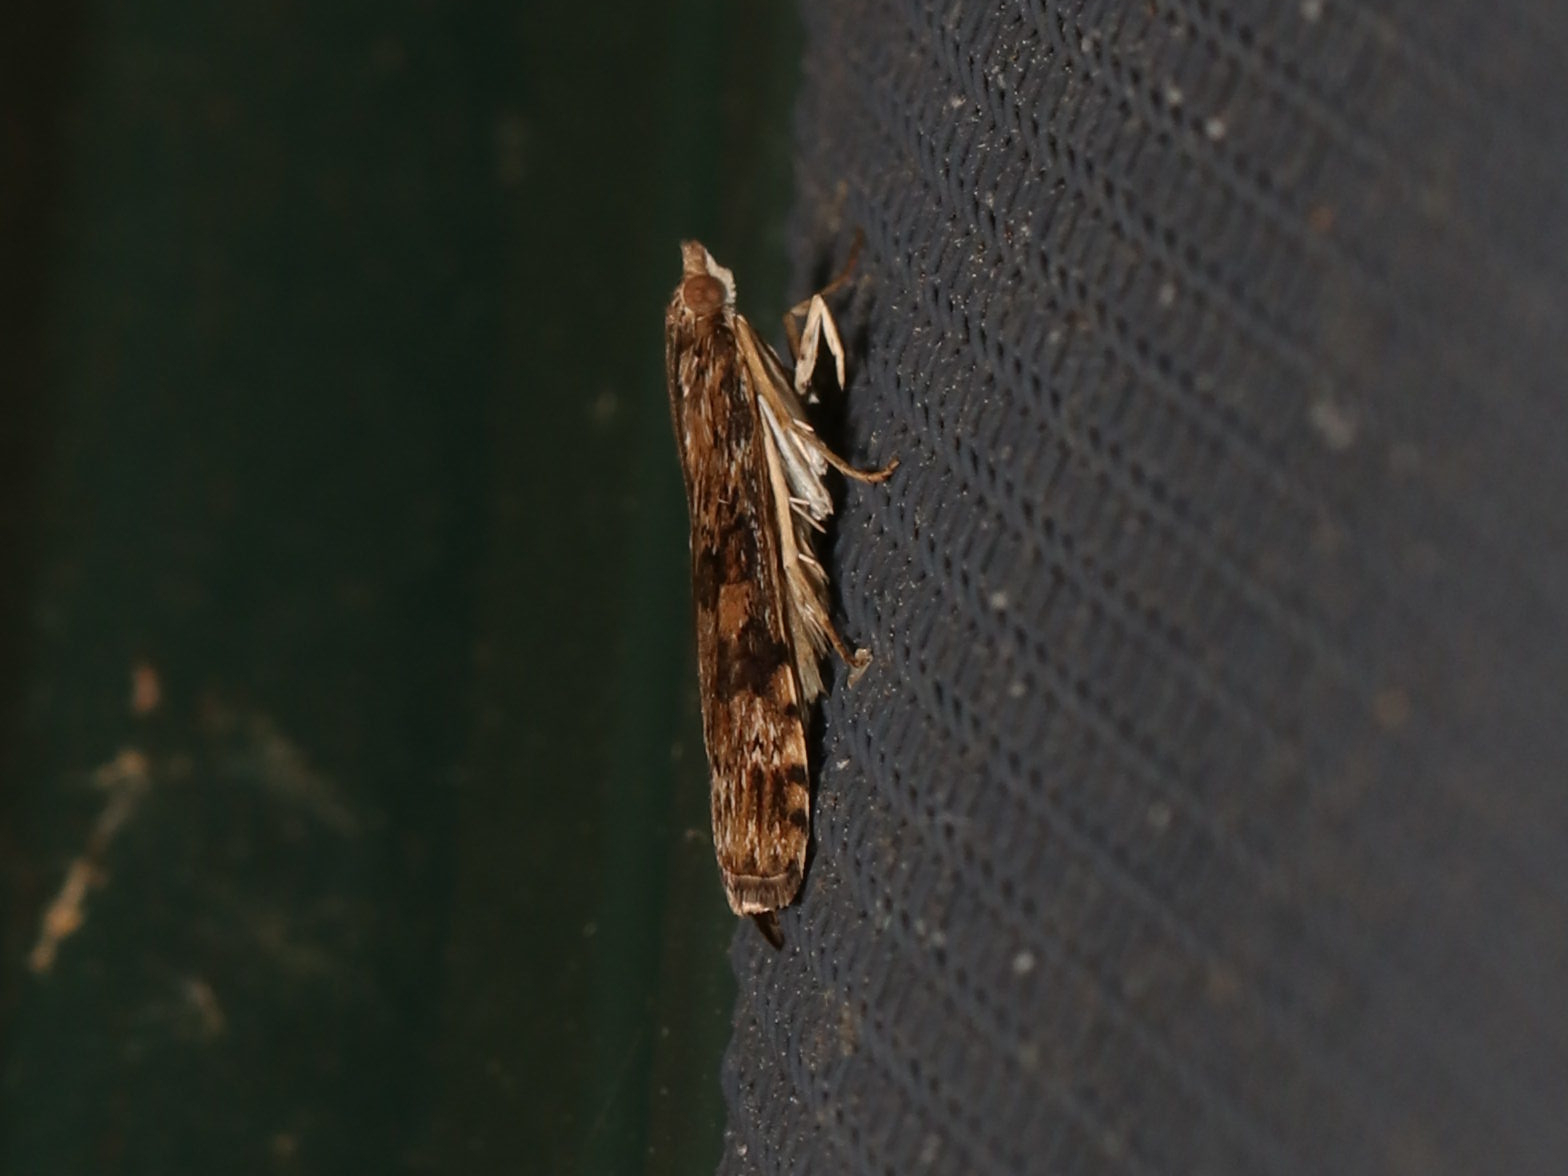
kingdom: Animalia
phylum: Arthropoda
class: Insecta
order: Lepidoptera
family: Crambidae
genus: Nomophila
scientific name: Nomophila nearctica
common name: American rush veneer
